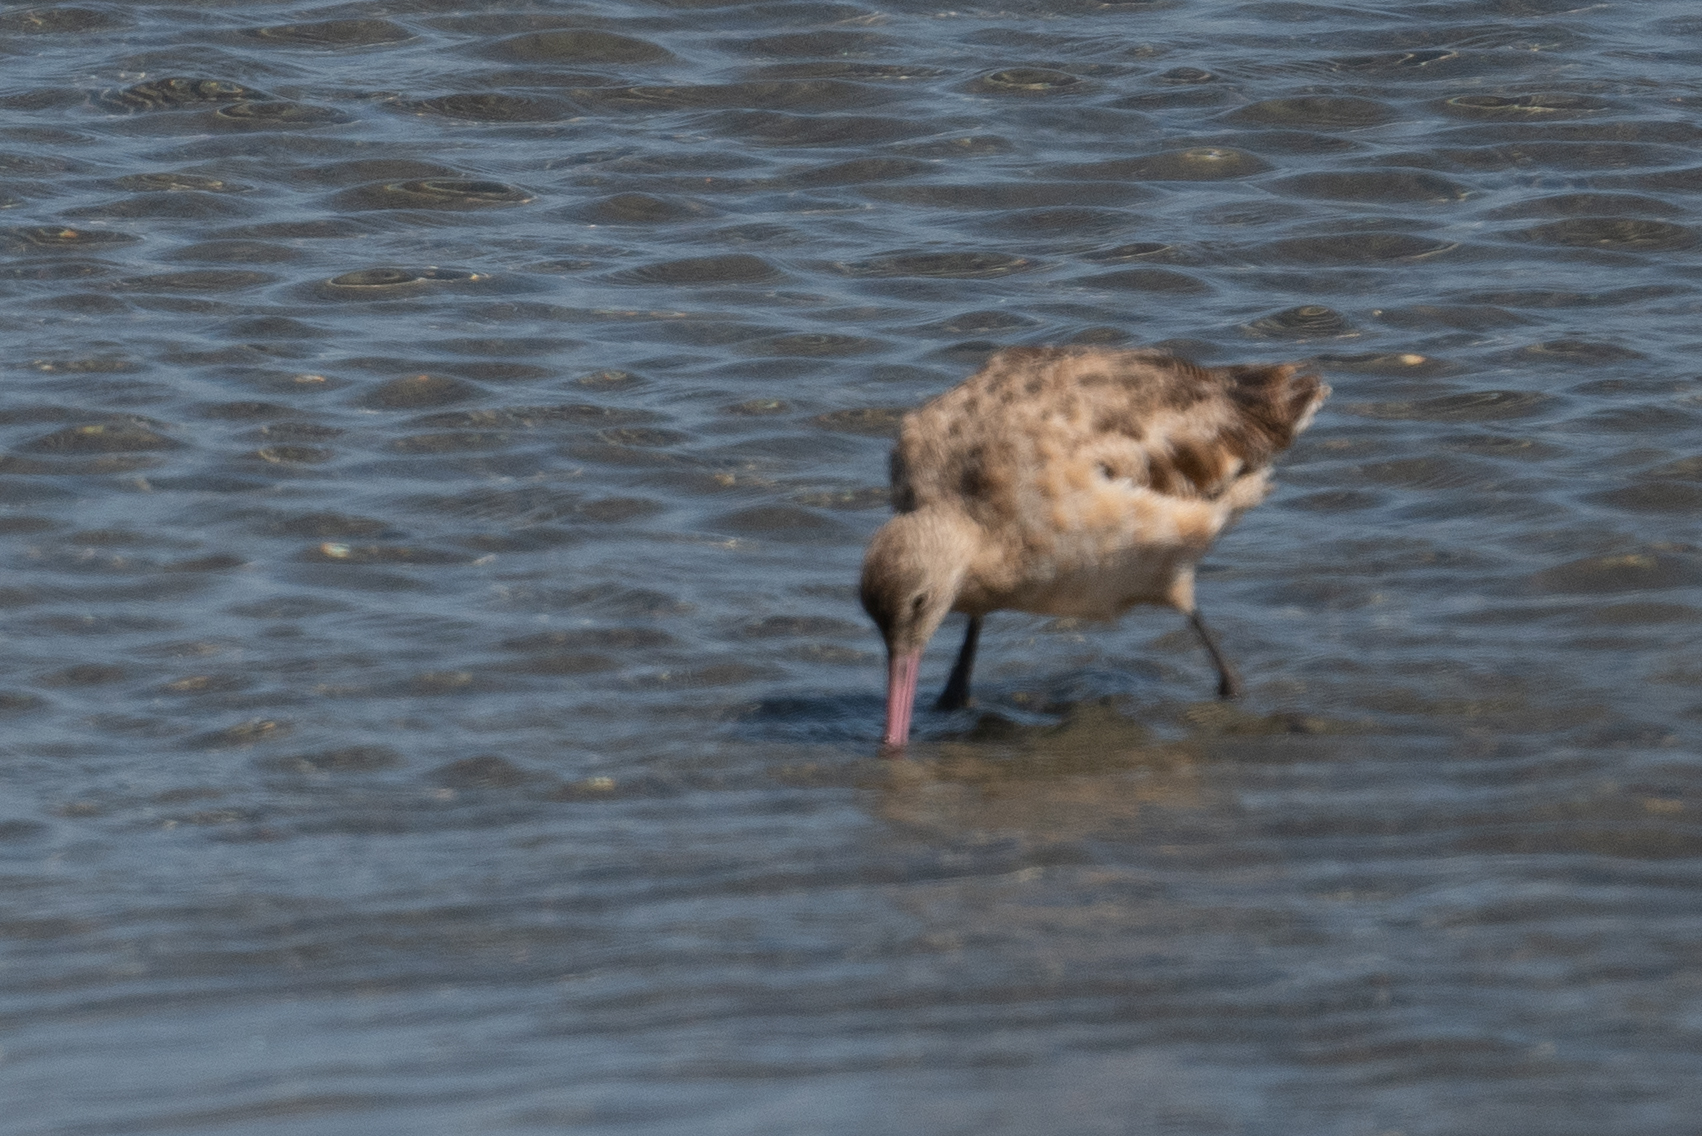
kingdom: Animalia
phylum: Chordata
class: Aves
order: Charadriiformes
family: Scolopacidae
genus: Limosa
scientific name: Limosa fedoa
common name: Marbled godwit
